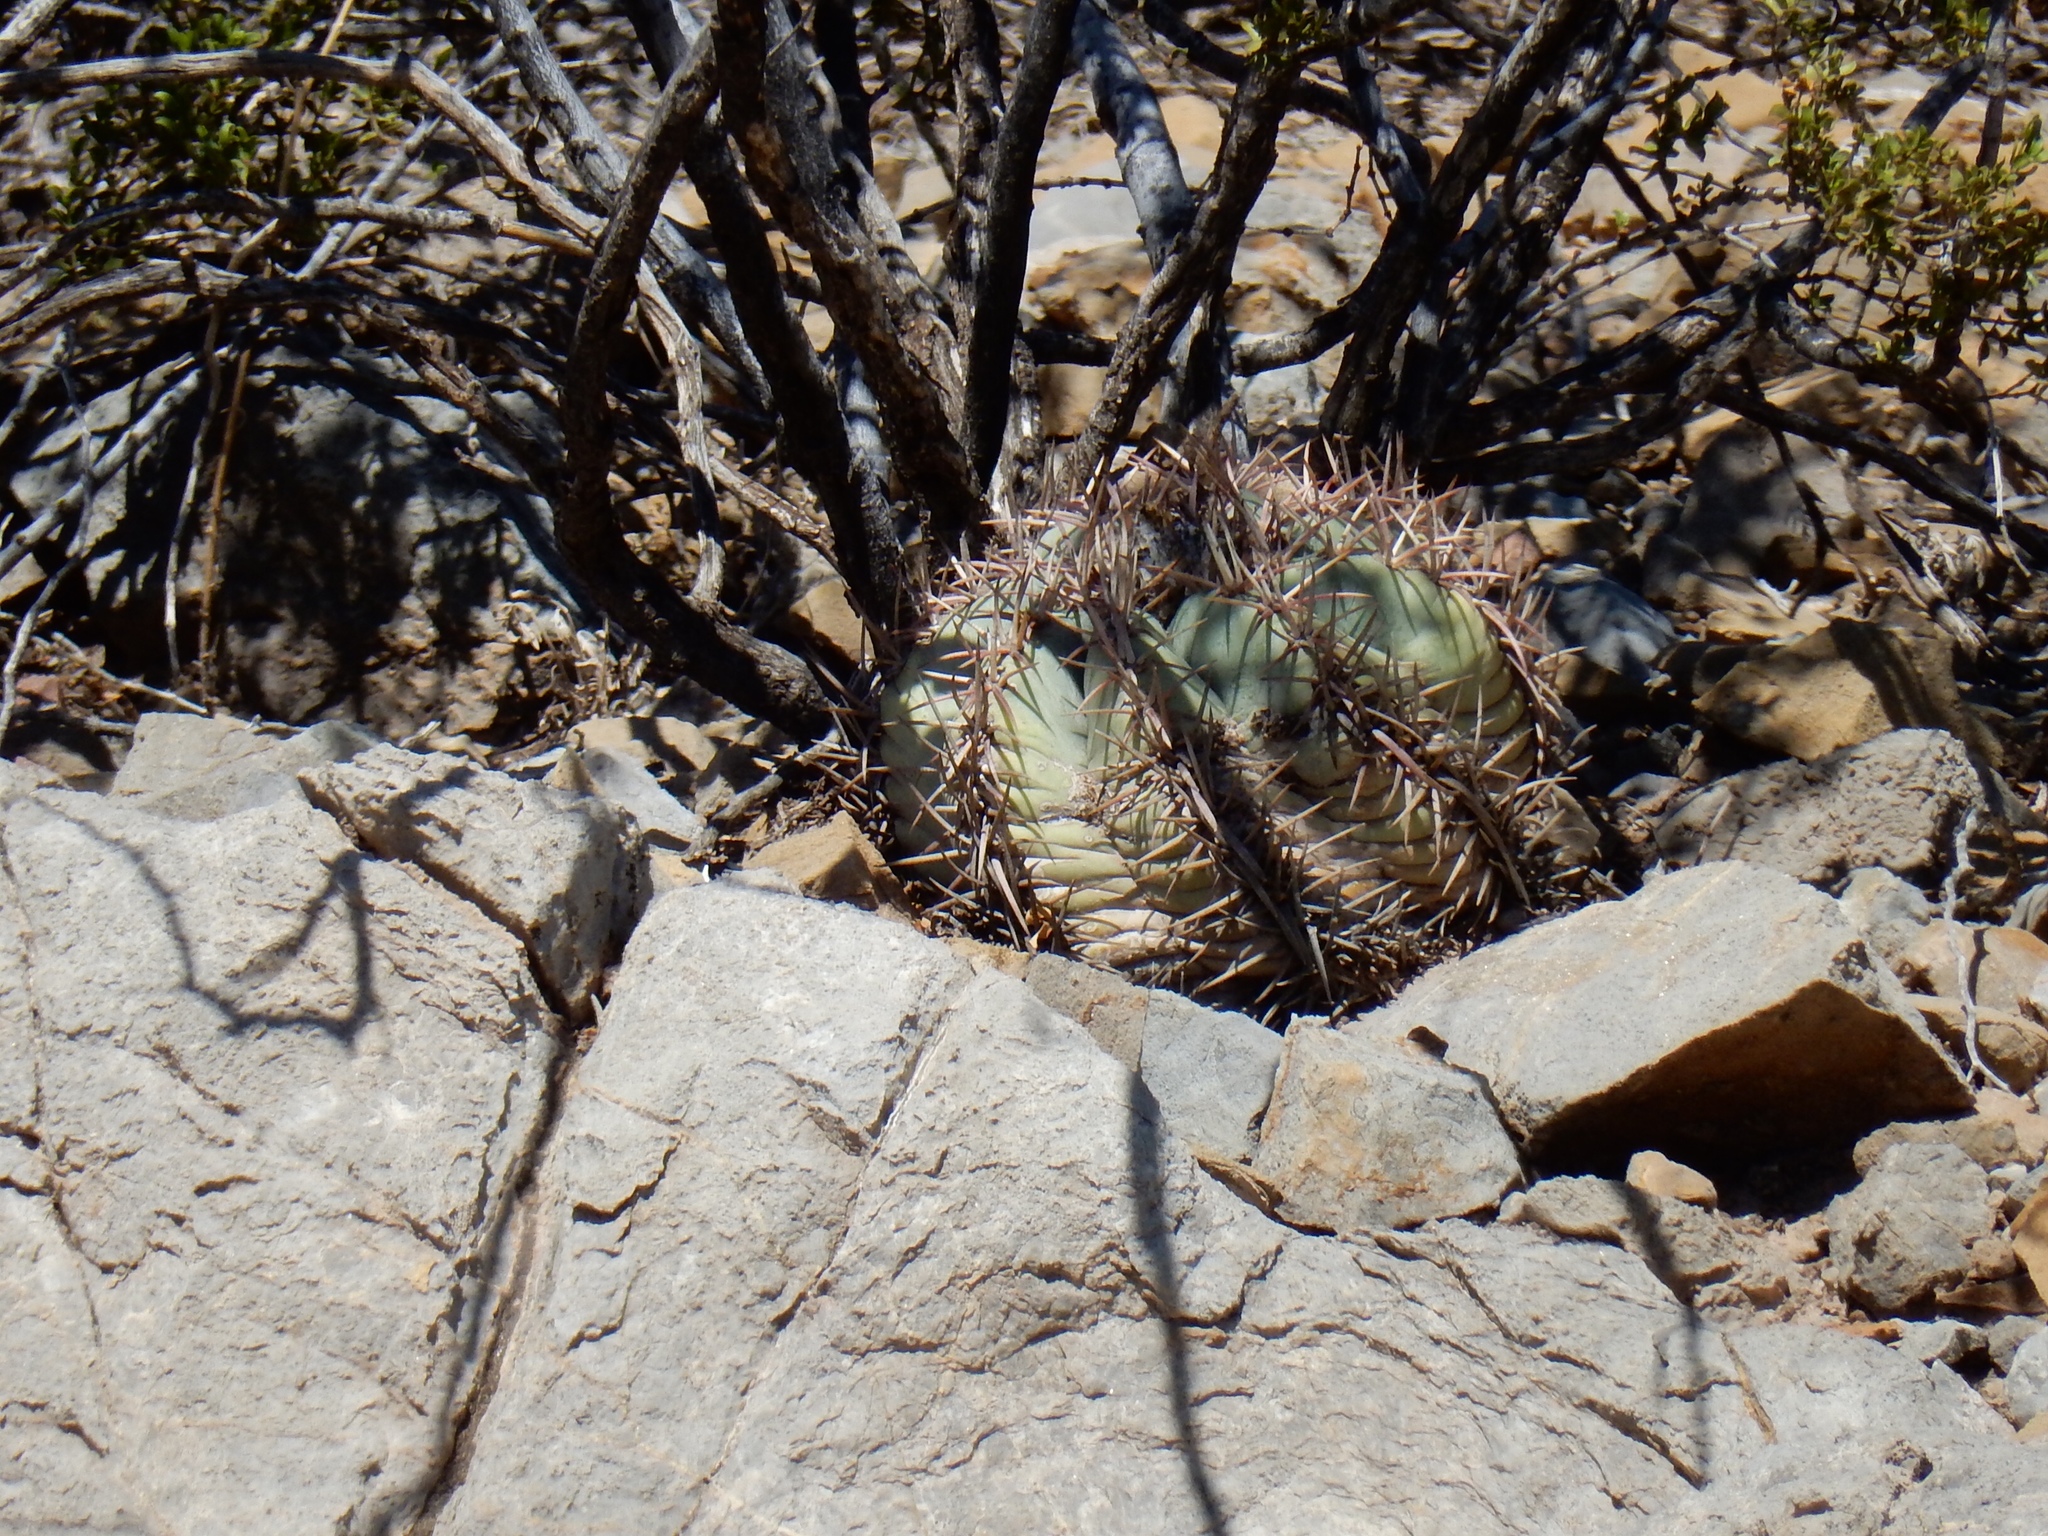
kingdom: Plantae
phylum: Tracheophyta
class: Magnoliopsida
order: Caryophyllales
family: Cactaceae
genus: Echinocactus
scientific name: Echinocactus horizonthalonius
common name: Devilshead
